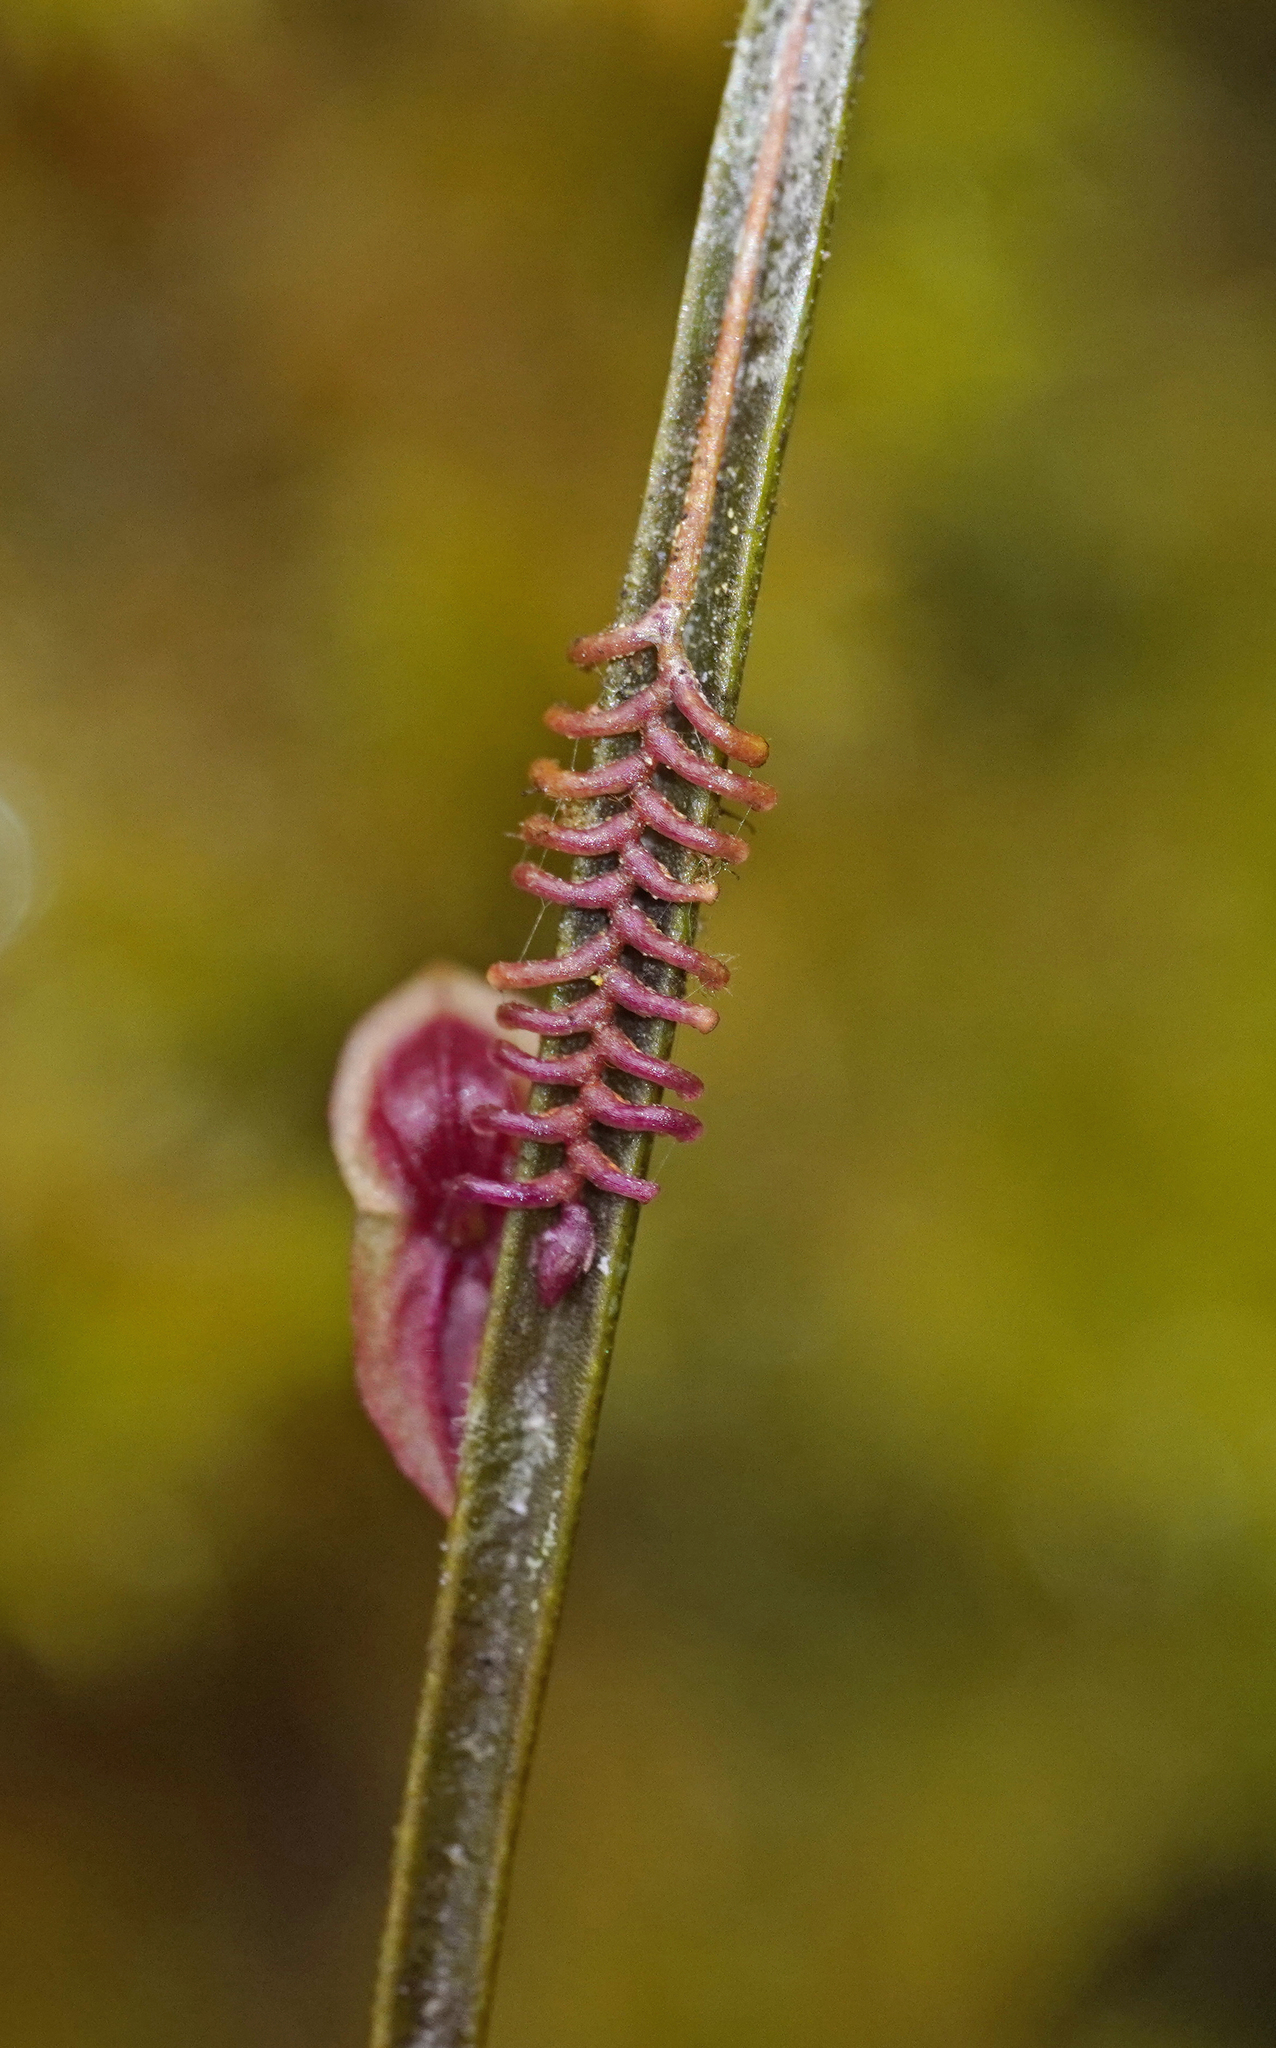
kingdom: Plantae
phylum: Tracheophyta
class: Liliopsida
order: Asparagales
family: Orchidaceae
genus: Lepanthes
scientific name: Lepanthes aciculifolia
